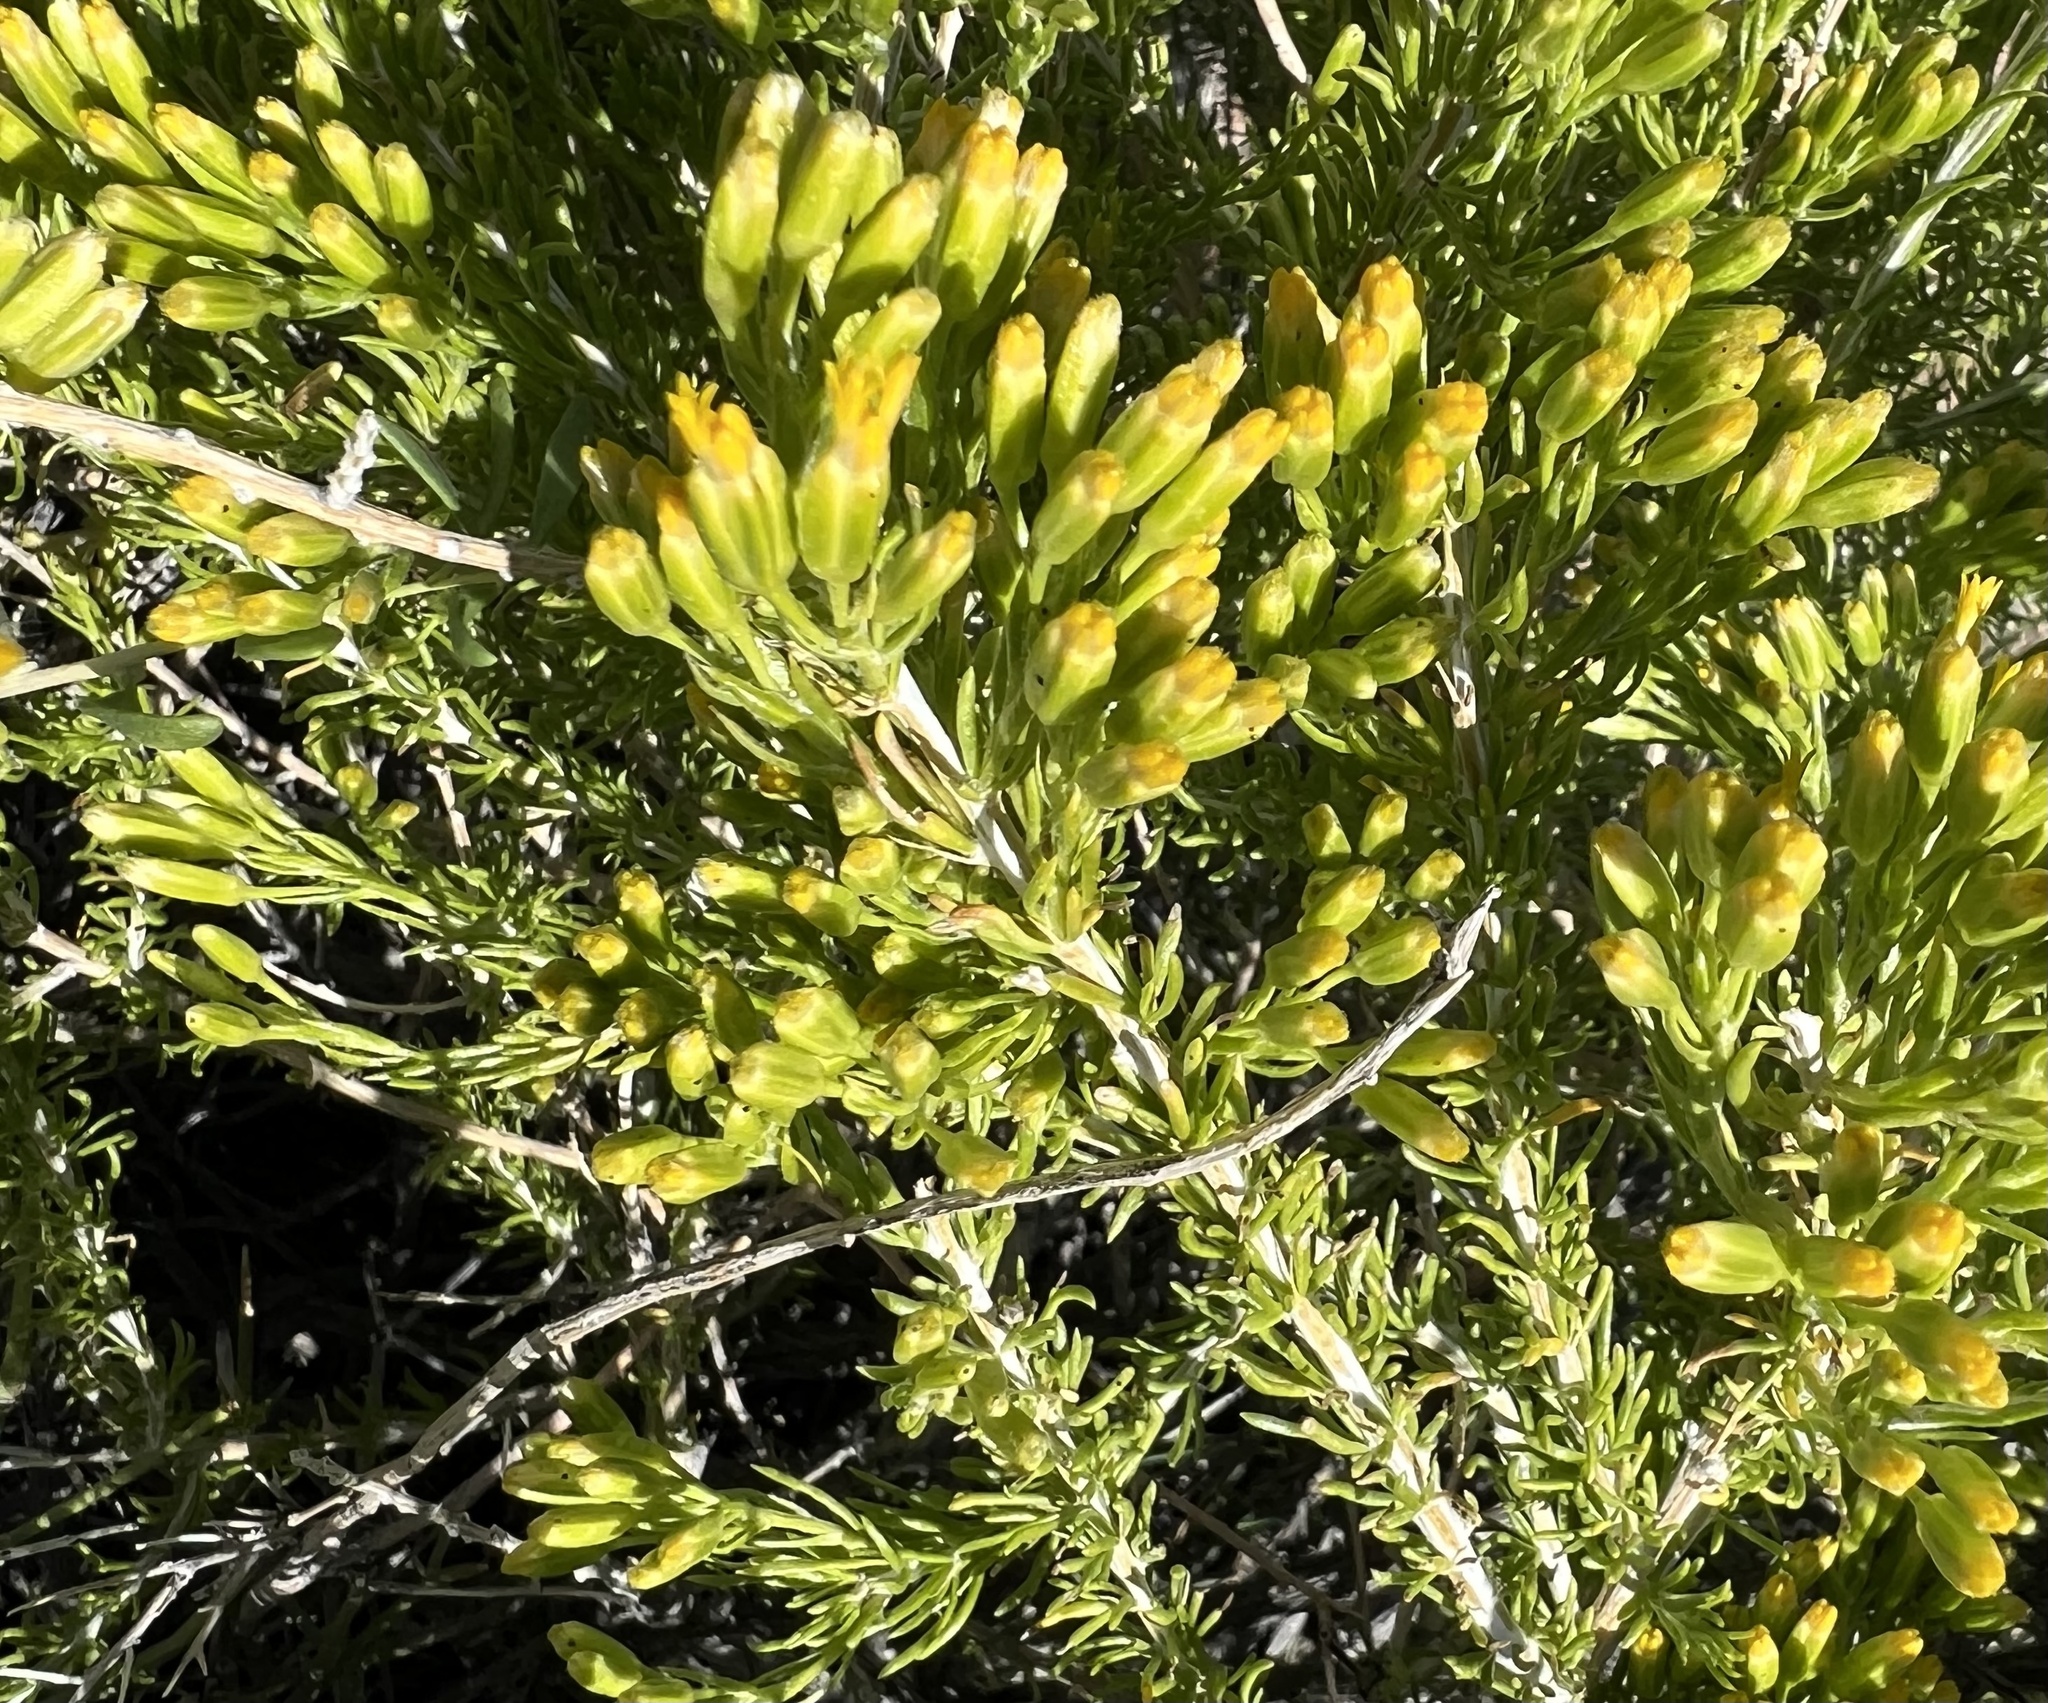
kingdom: Plantae
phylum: Tracheophyta
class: Magnoliopsida
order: Asterales
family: Asteraceae
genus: Tetradymia
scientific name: Tetradymia glabrata
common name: Smooth tetradymia
